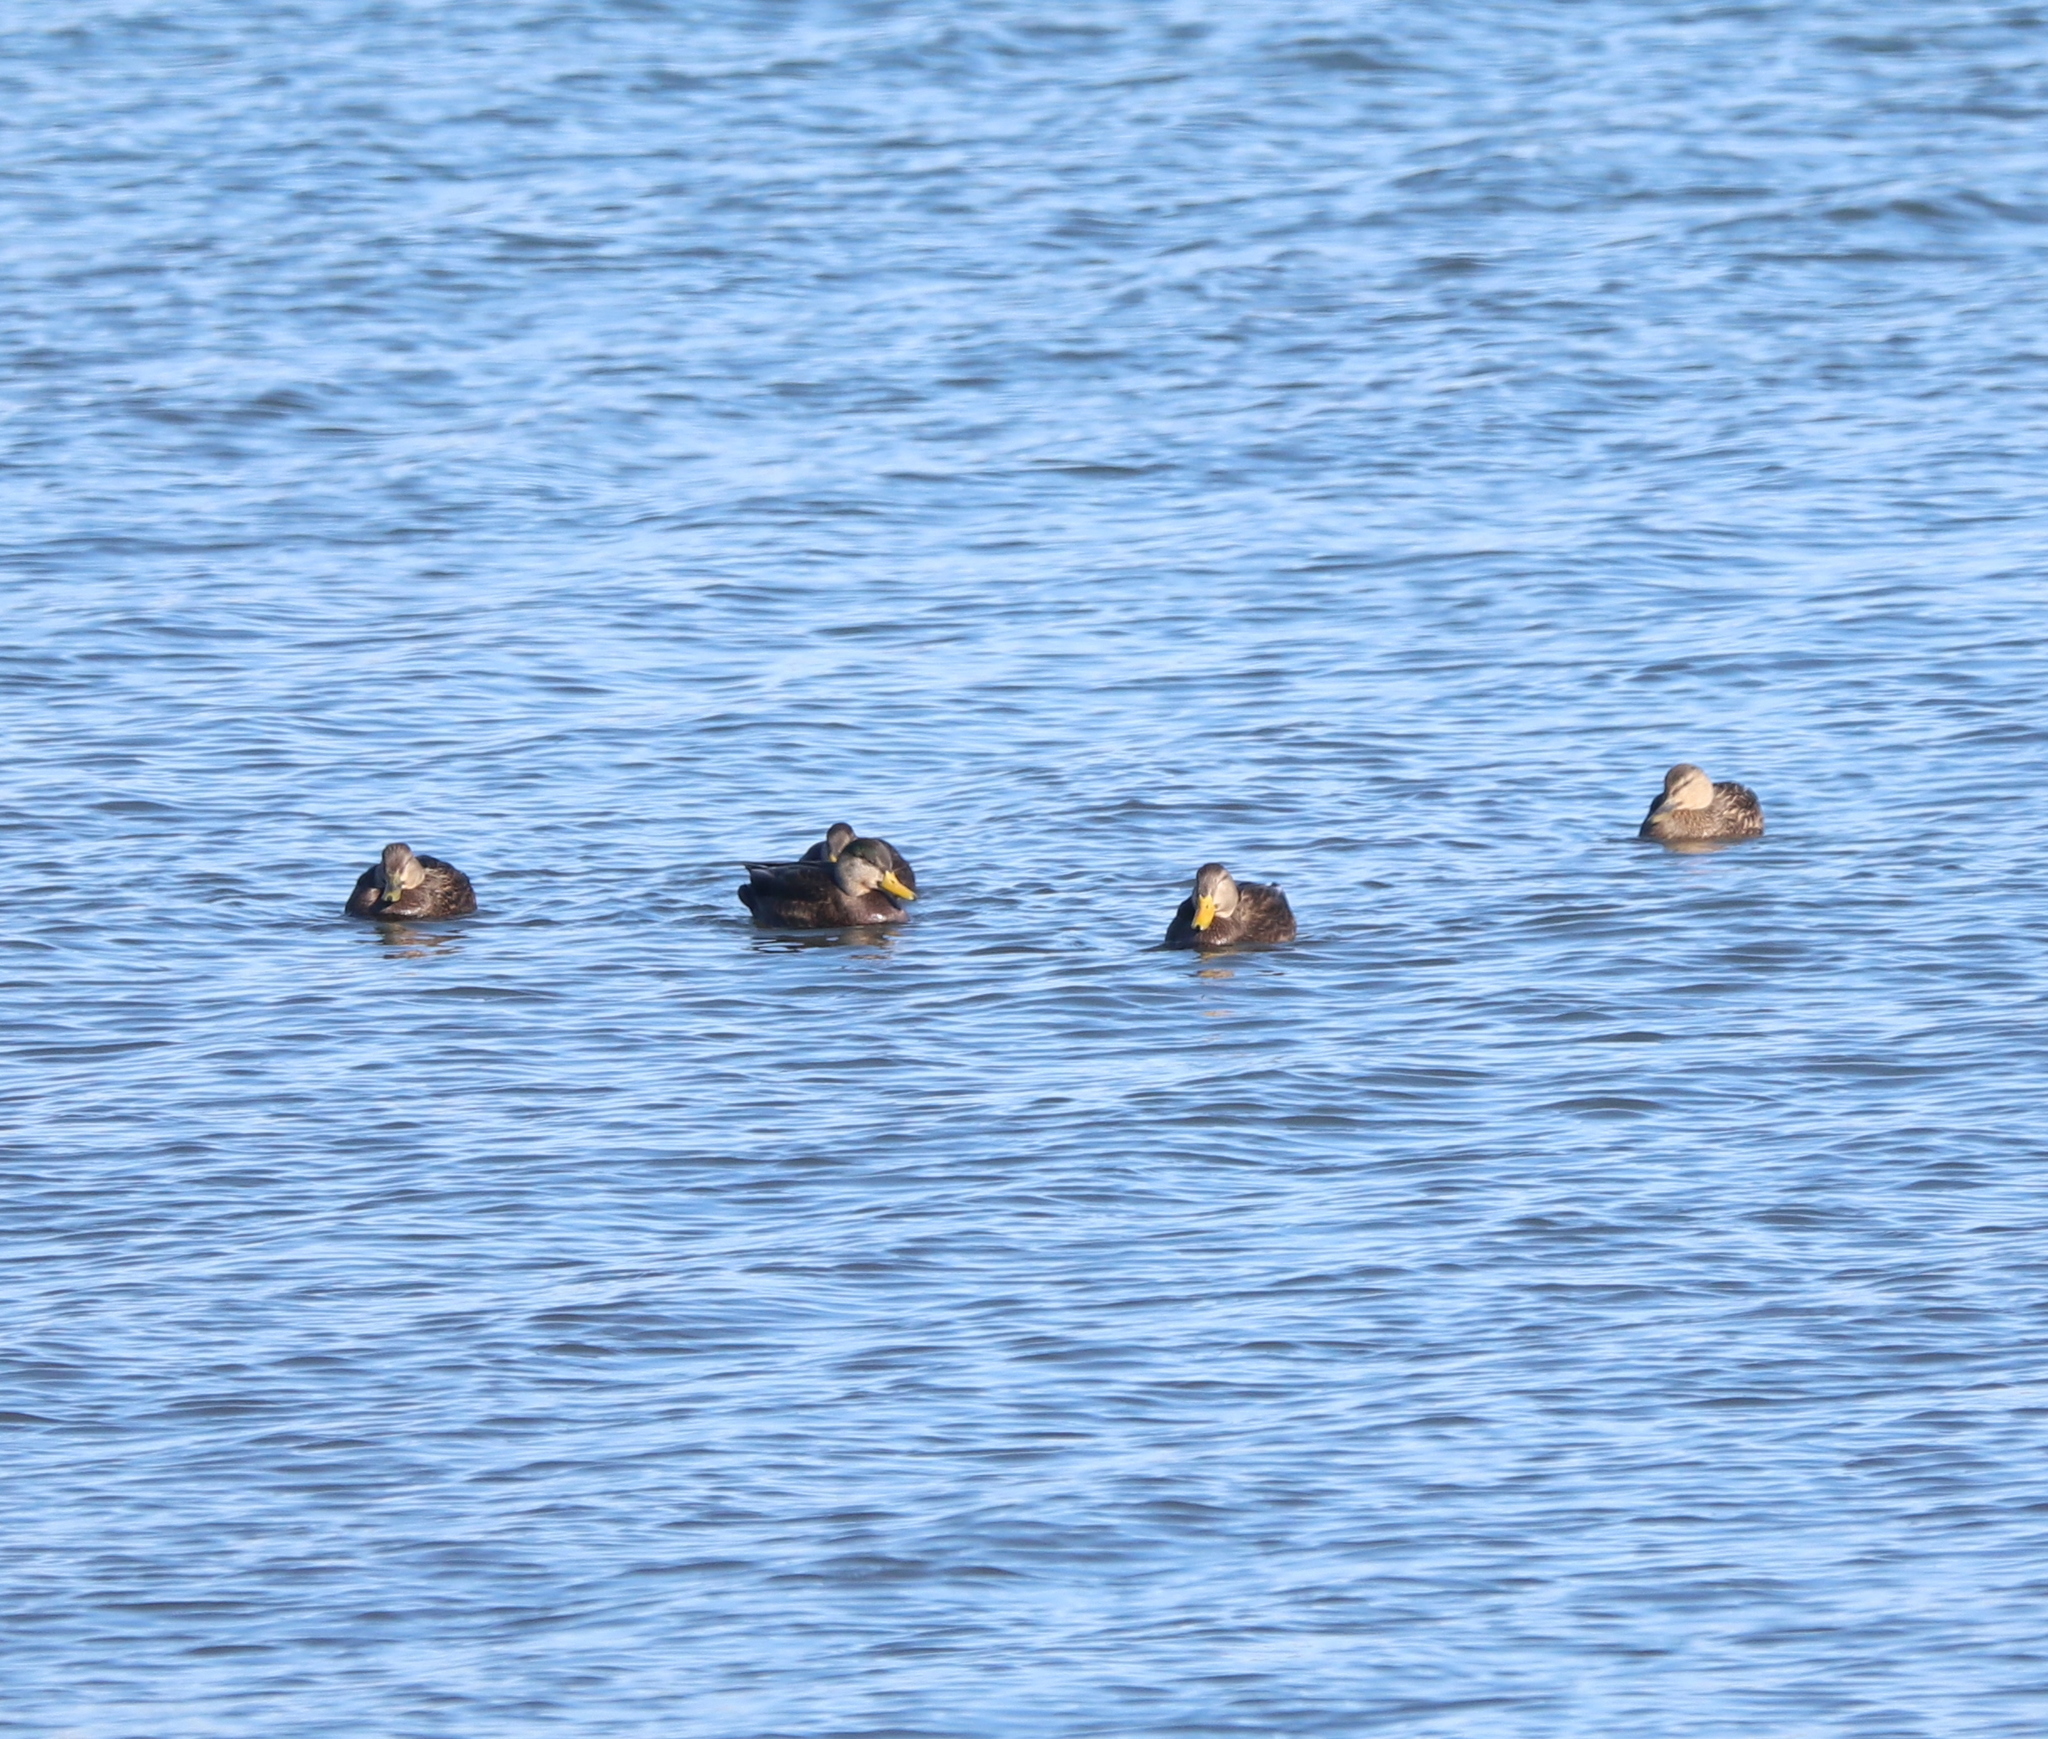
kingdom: Animalia
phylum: Chordata
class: Aves
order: Anseriformes
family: Anatidae
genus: Anas
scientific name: Anas rubripes
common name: American black duck
